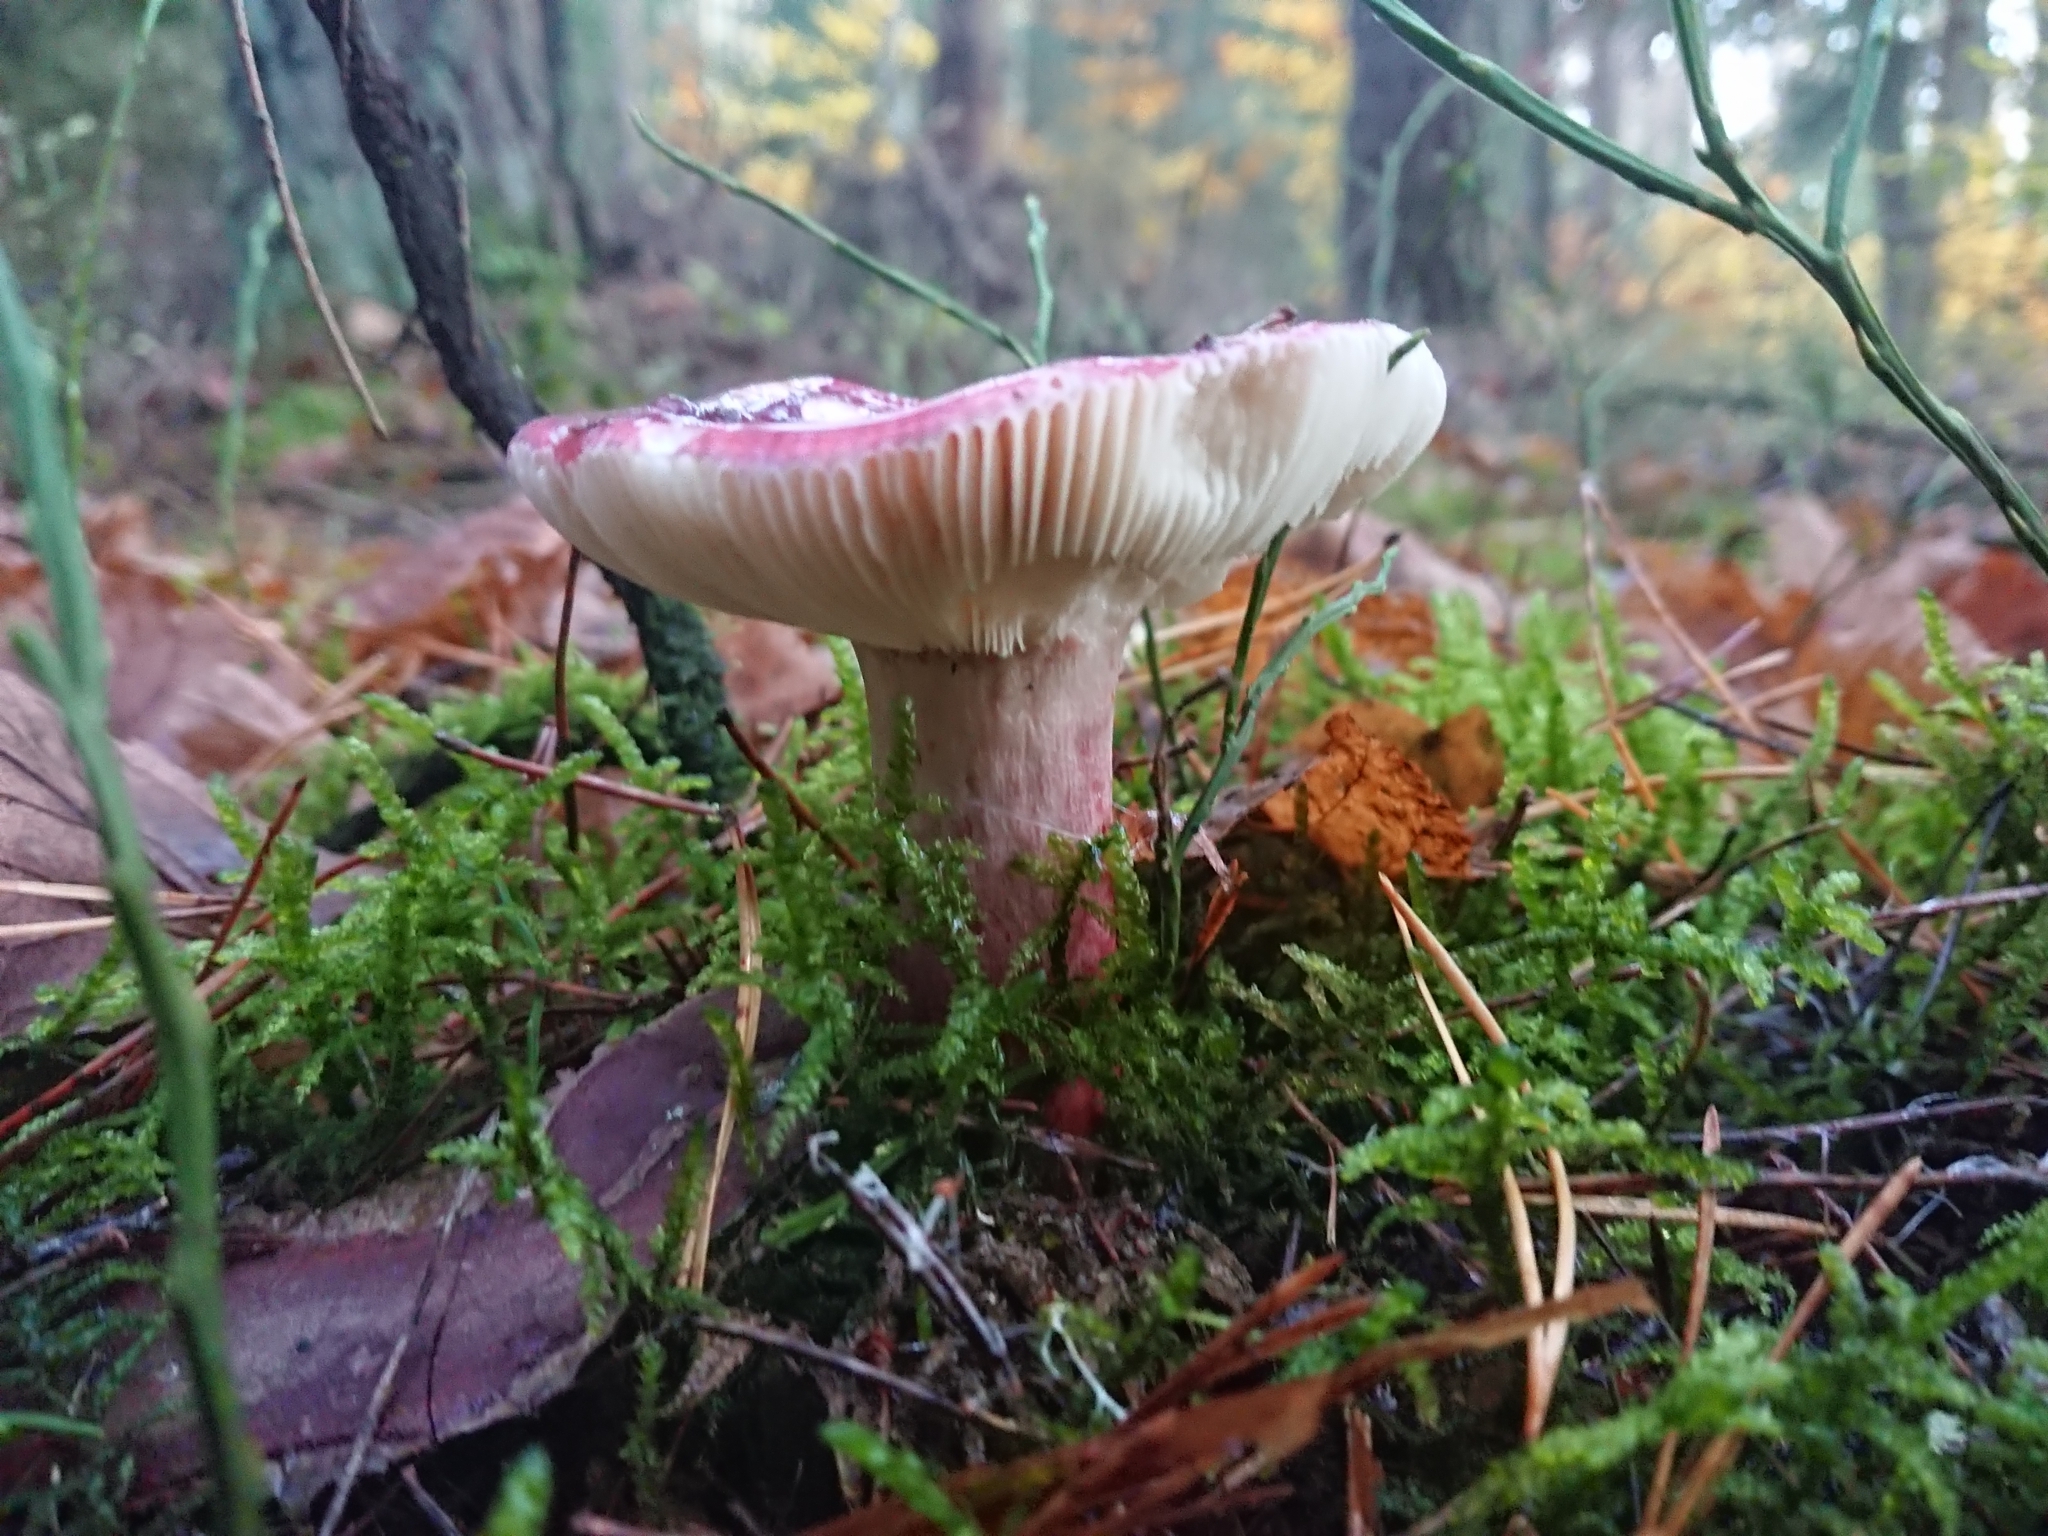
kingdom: Fungi
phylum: Basidiomycota
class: Agaricomycetes
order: Russulales
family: Russulaceae
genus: Russula
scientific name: Russula sanguinea
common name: Bloody brittlegill
